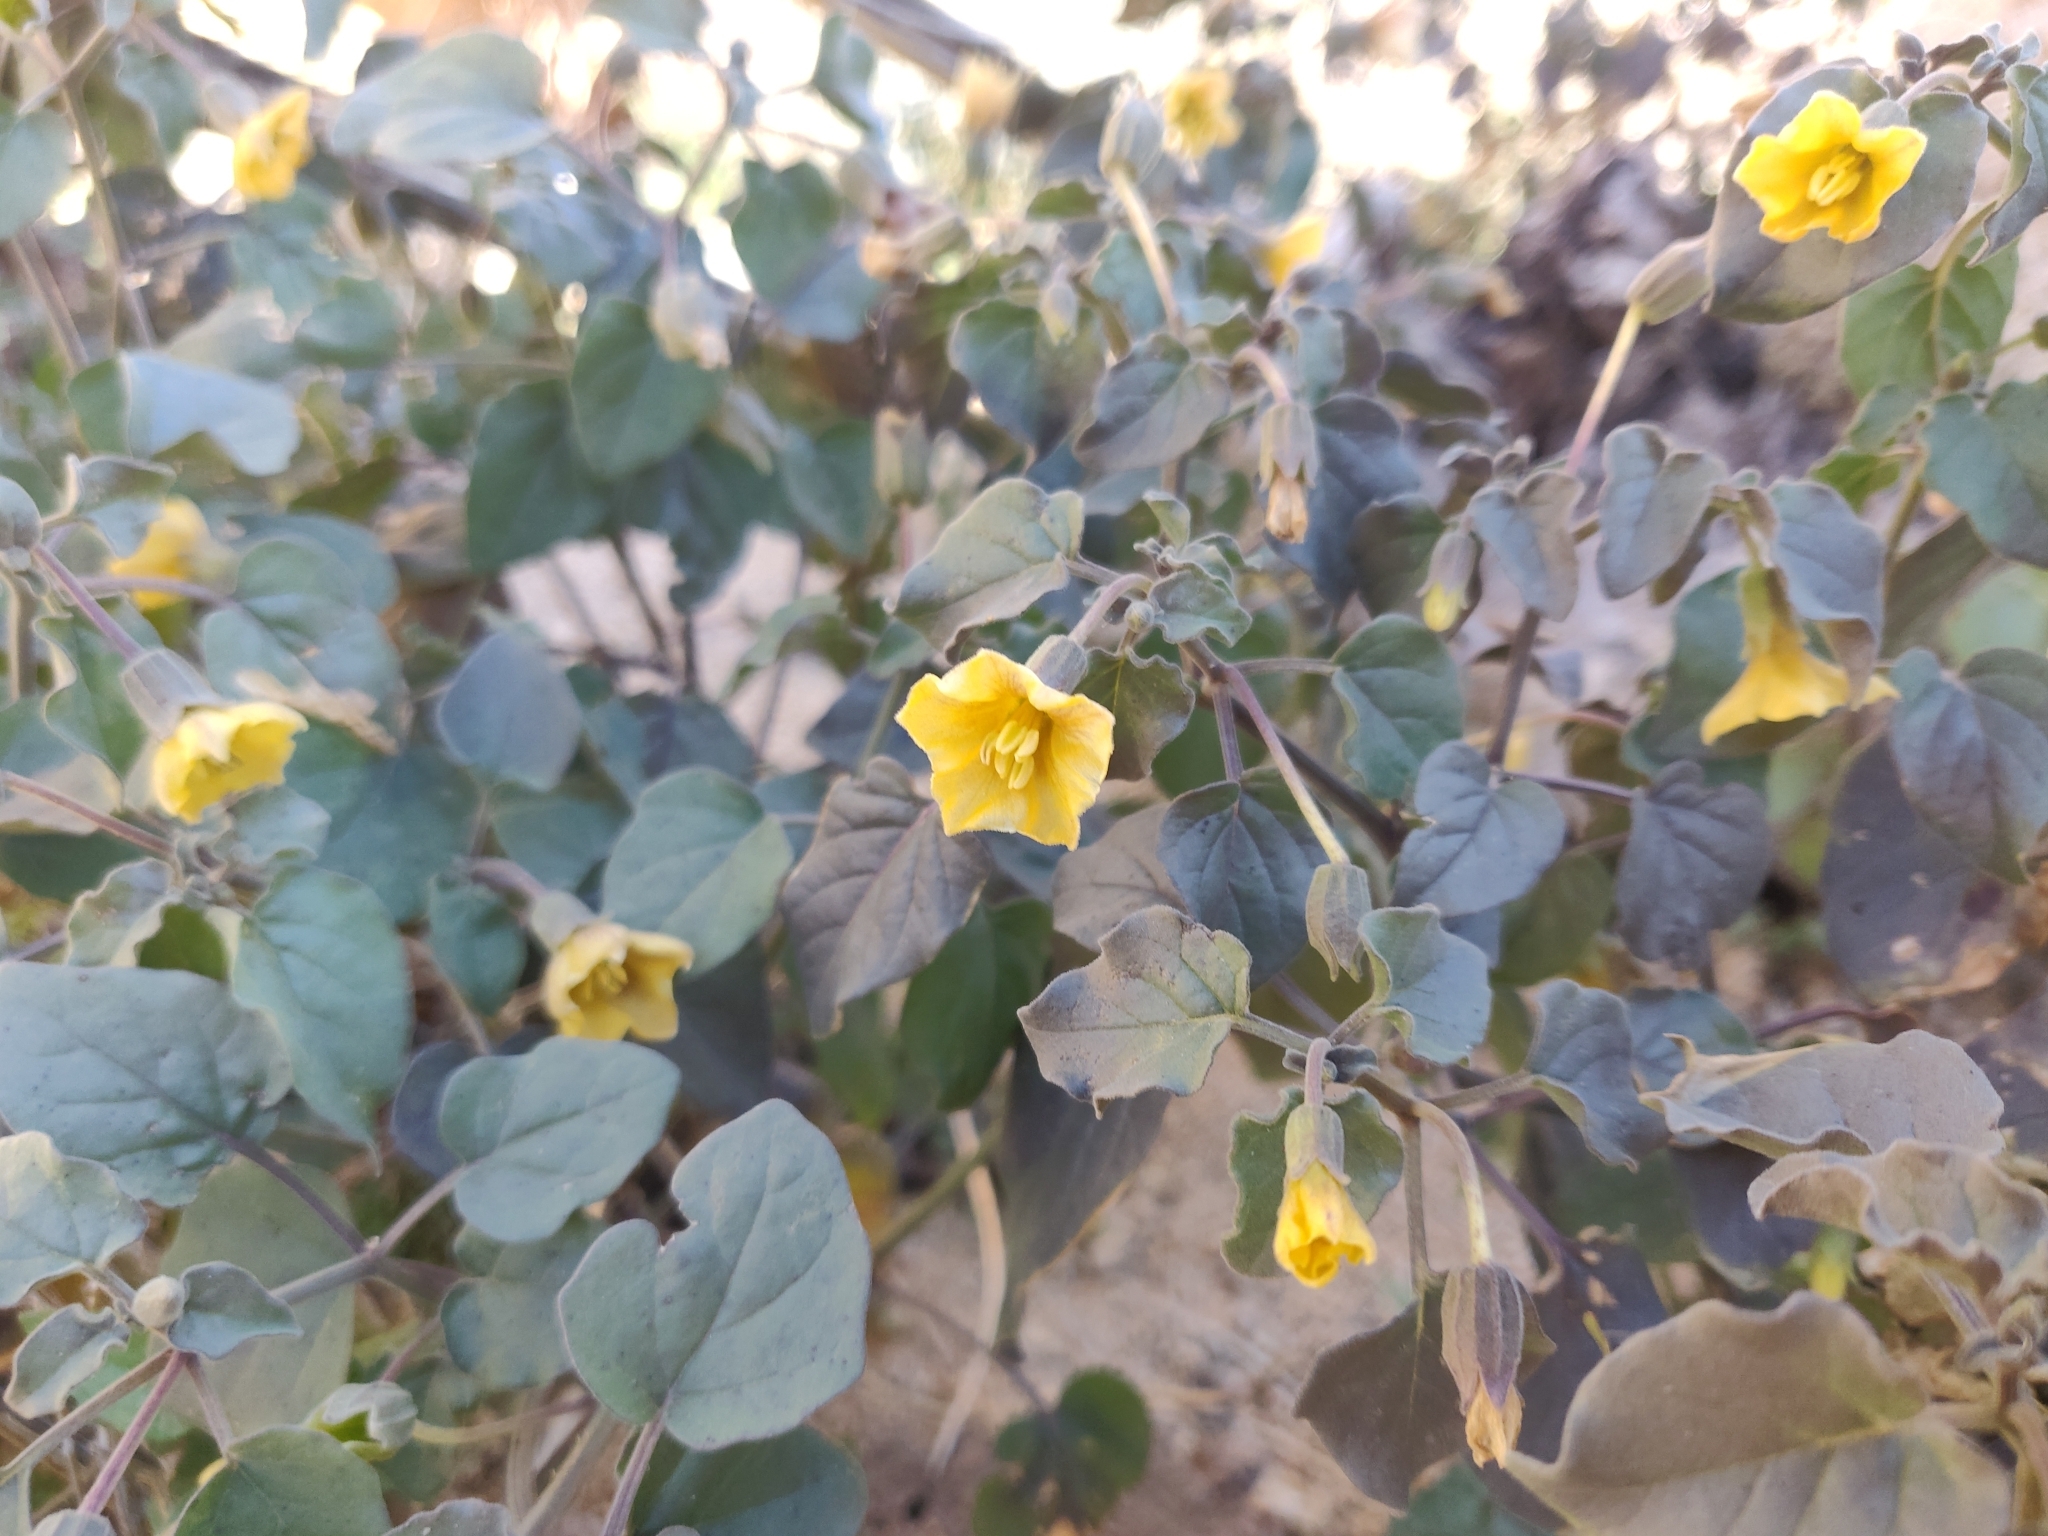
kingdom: Plantae
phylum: Tracheophyta
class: Magnoliopsida
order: Solanales
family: Solanaceae
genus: Physalis
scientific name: Physalis crassifolia
